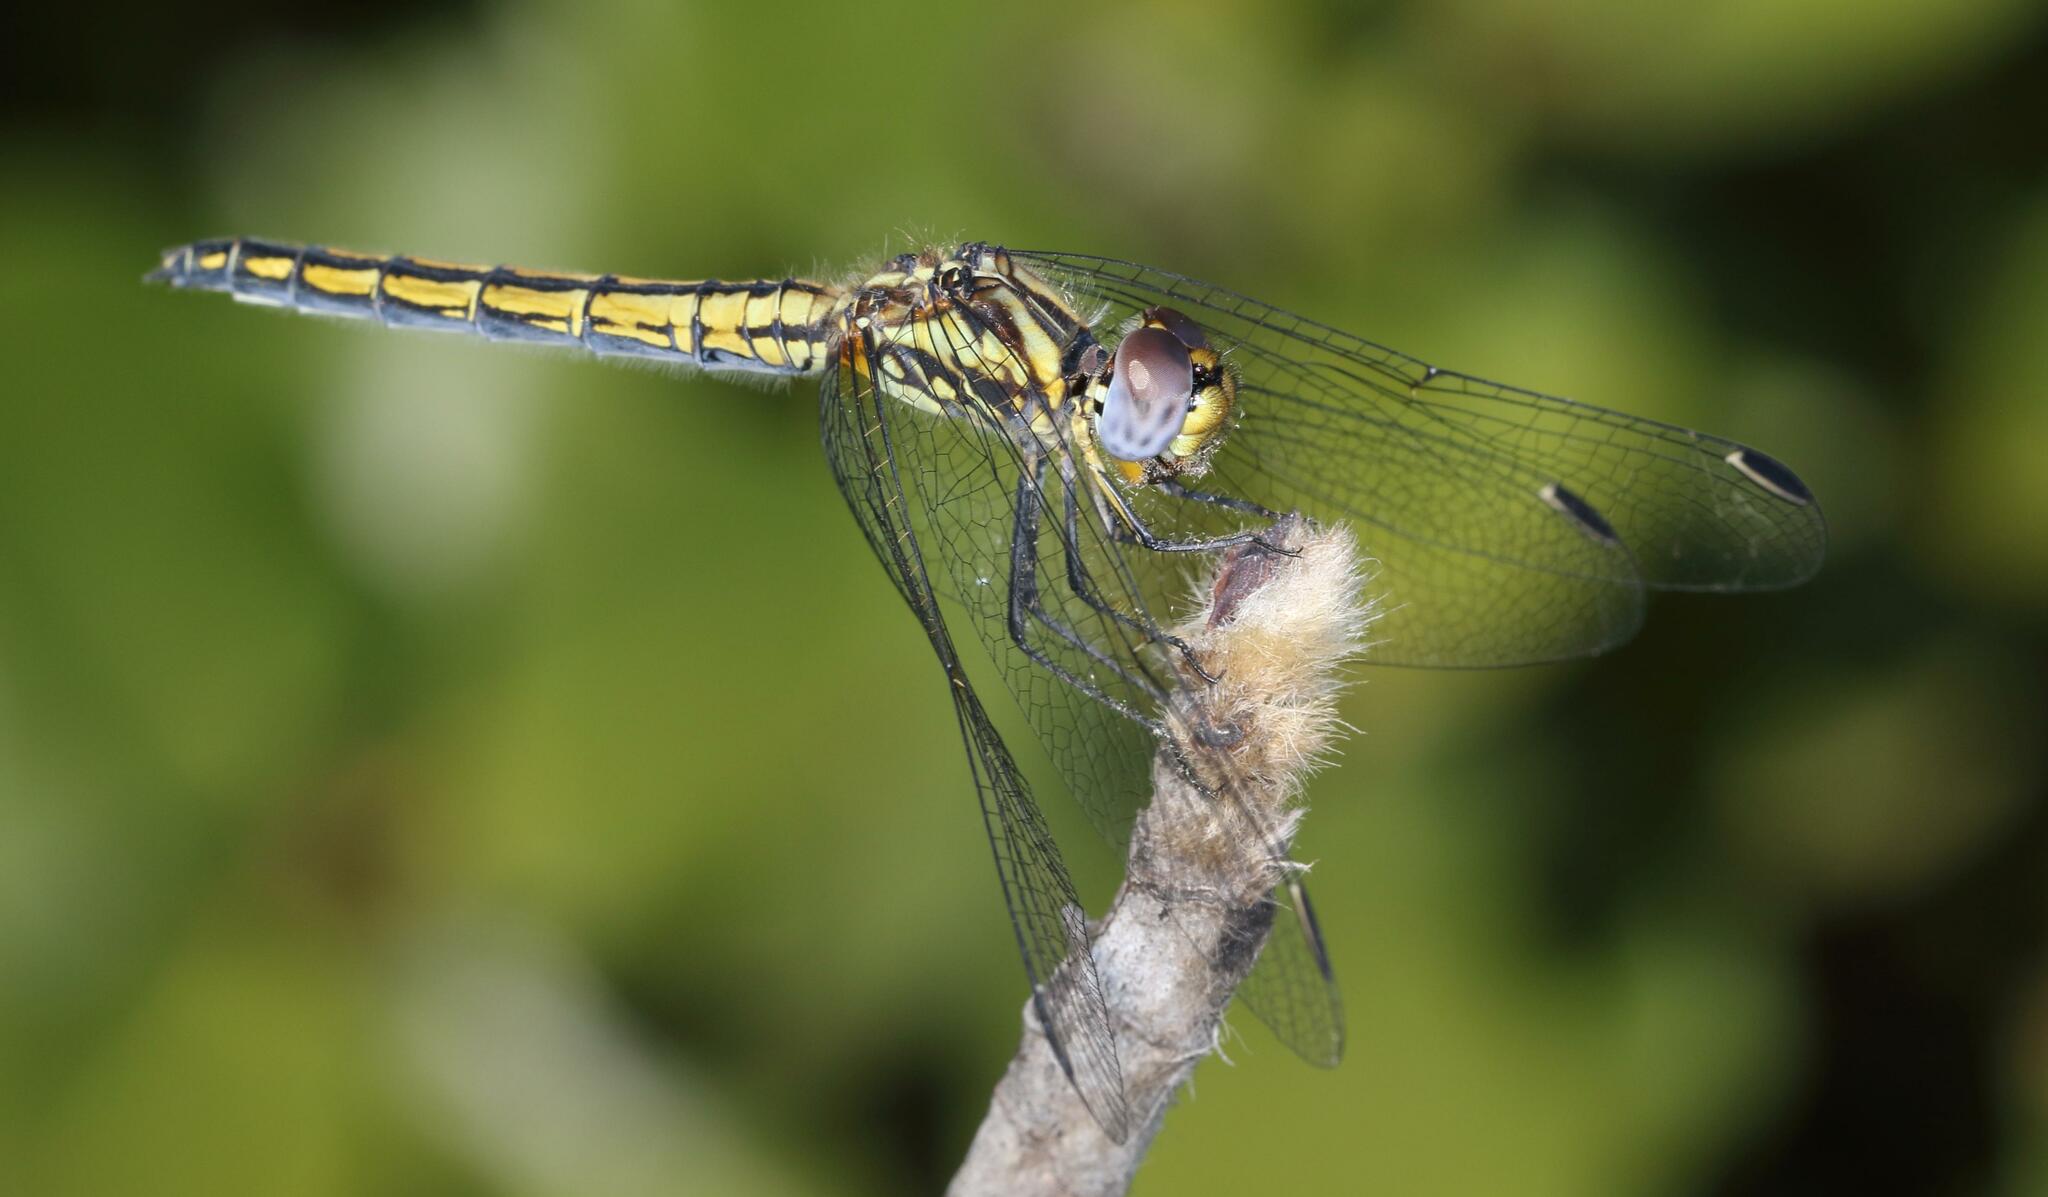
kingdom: Animalia
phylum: Arthropoda
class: Insecta
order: Odonata
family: Libellulidae
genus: Trithemis
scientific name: Trithemis furva
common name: Dark dropwing
